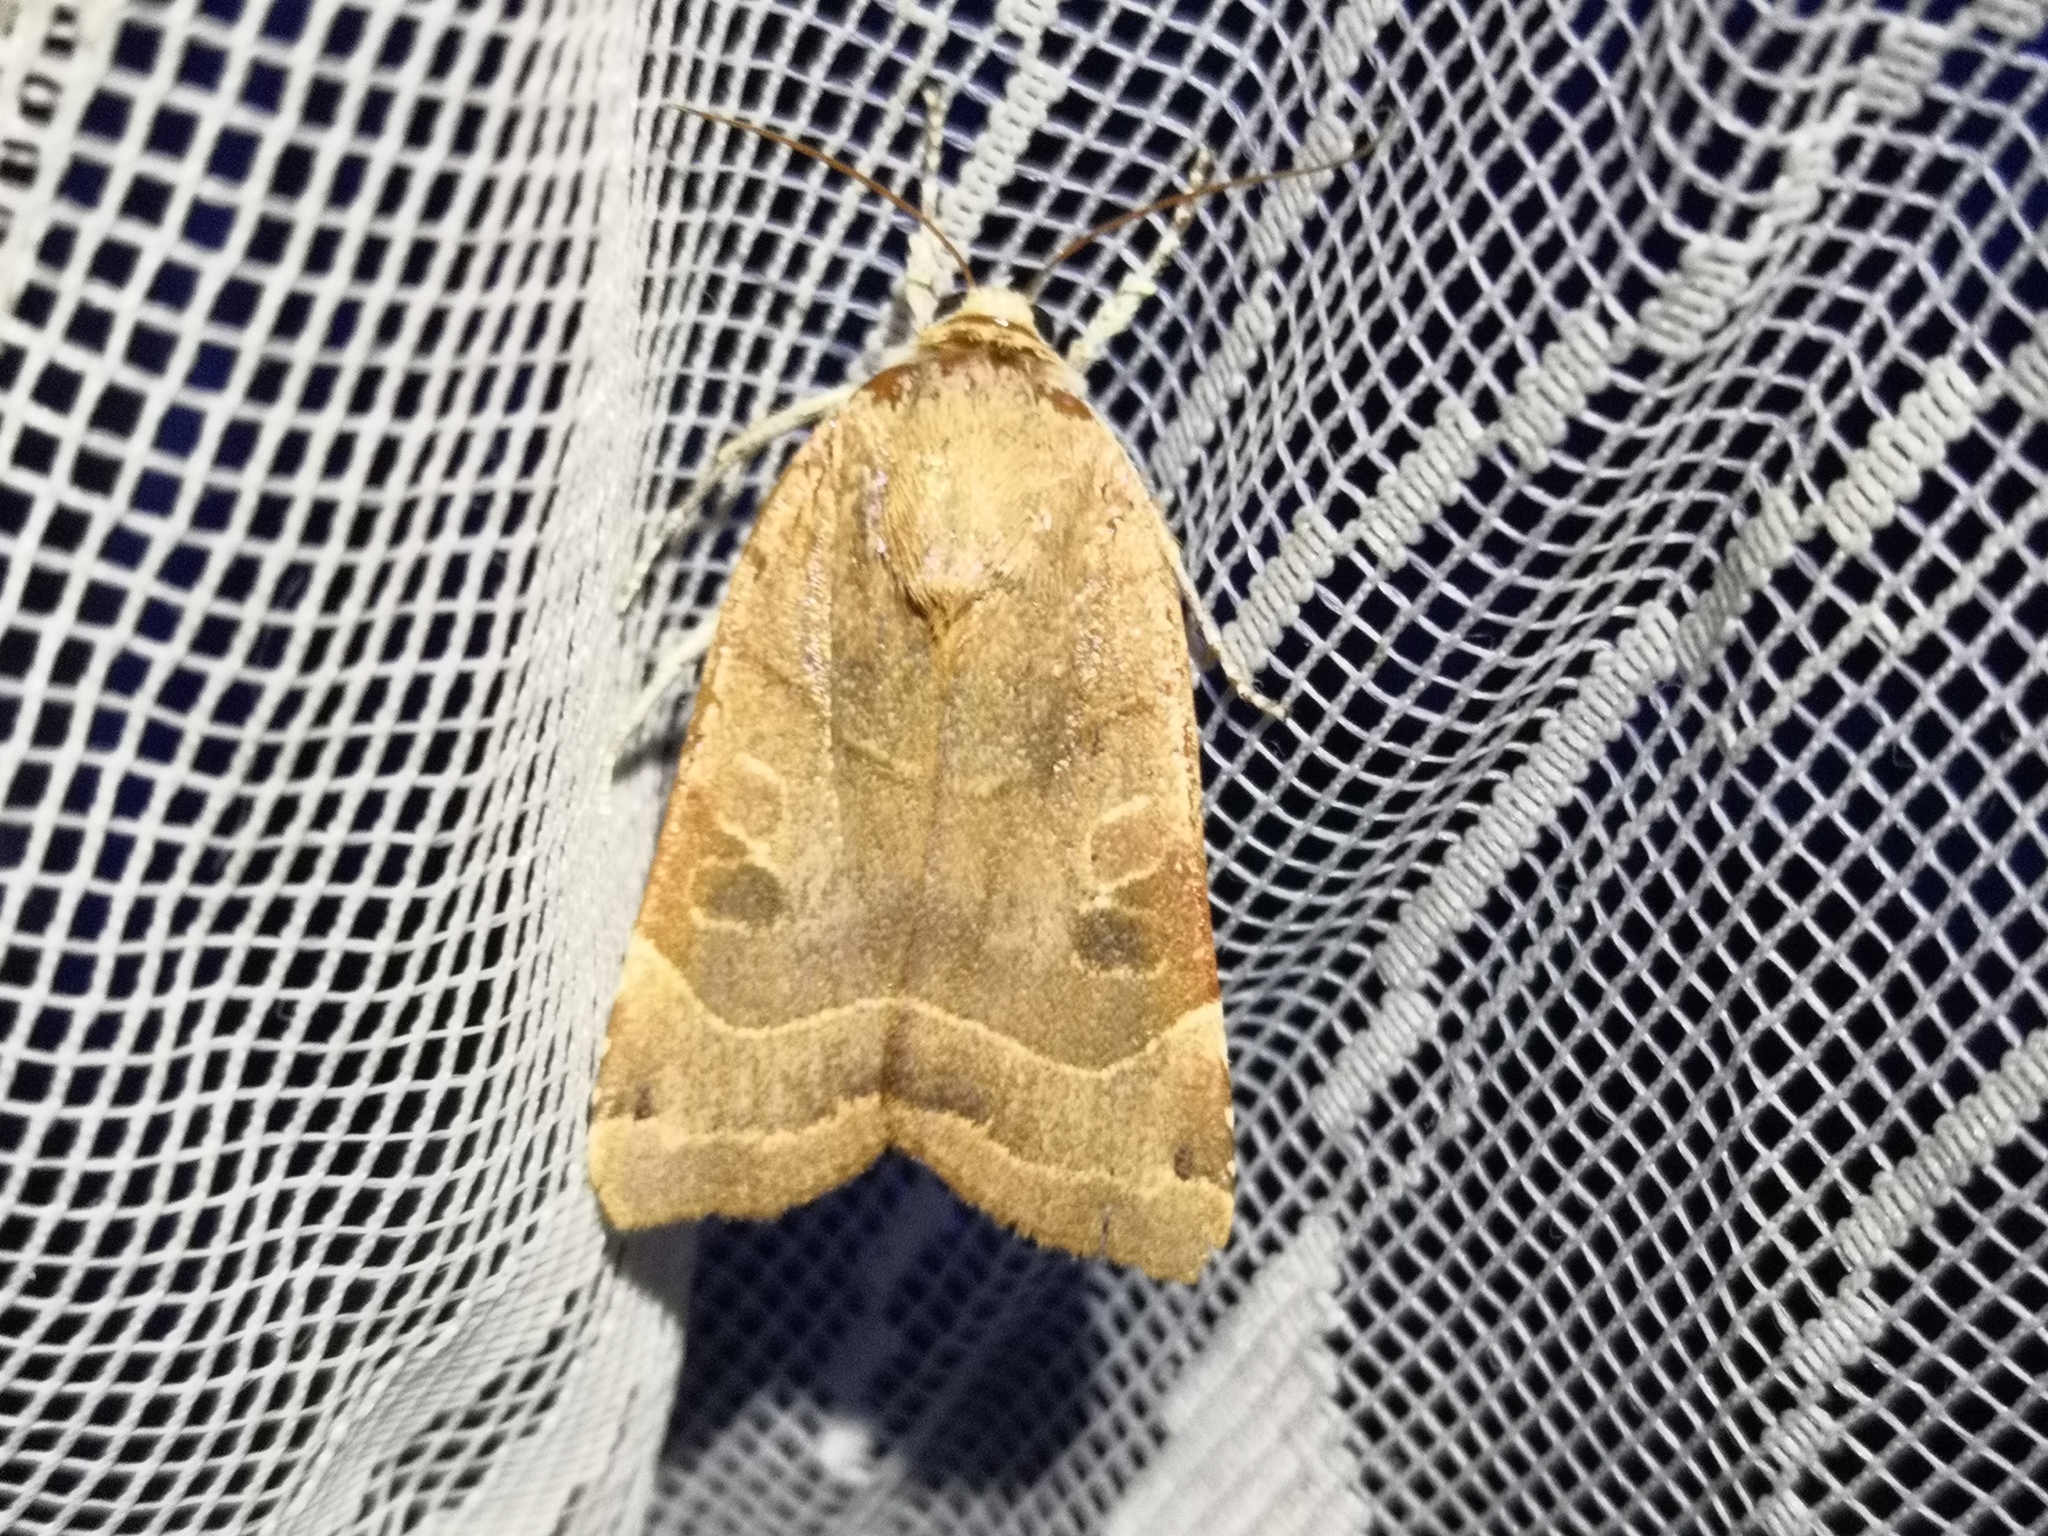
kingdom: Animalia
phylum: Arthropoda
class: Insecta
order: Lepidoptera
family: Noctuidae
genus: Noctua
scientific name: Noctua fimbriata
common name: Broad-bordered yellow underwing
